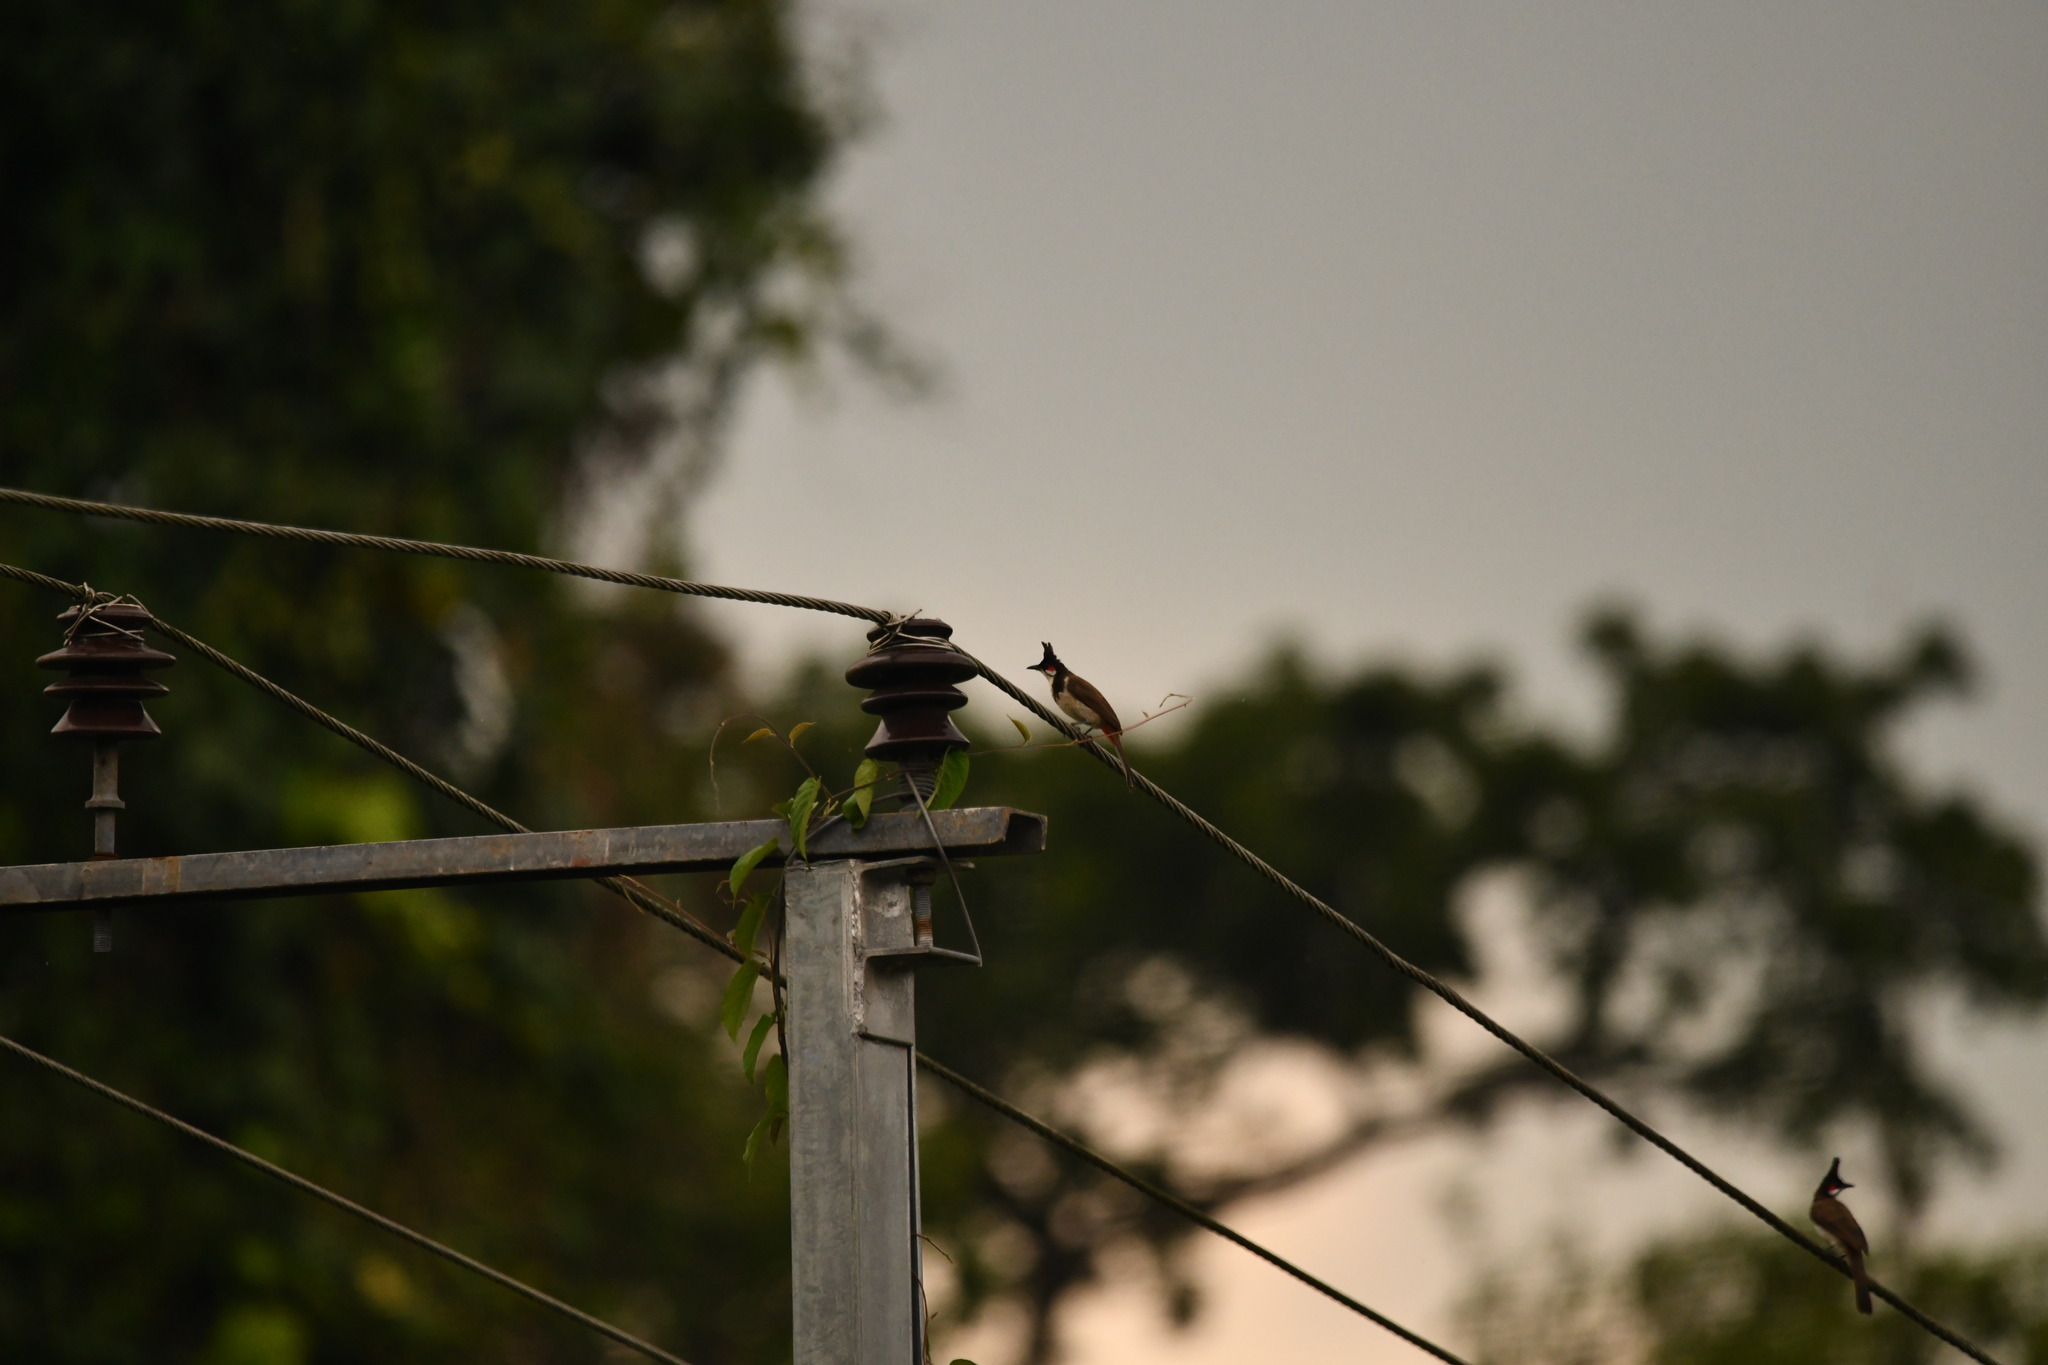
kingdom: Animalia
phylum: Chordata
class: Aves
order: Passeriformes
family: Pycnonotidae
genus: Pycnonotus
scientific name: Pycnonotus jocosus
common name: Red-whiskered bulbul
